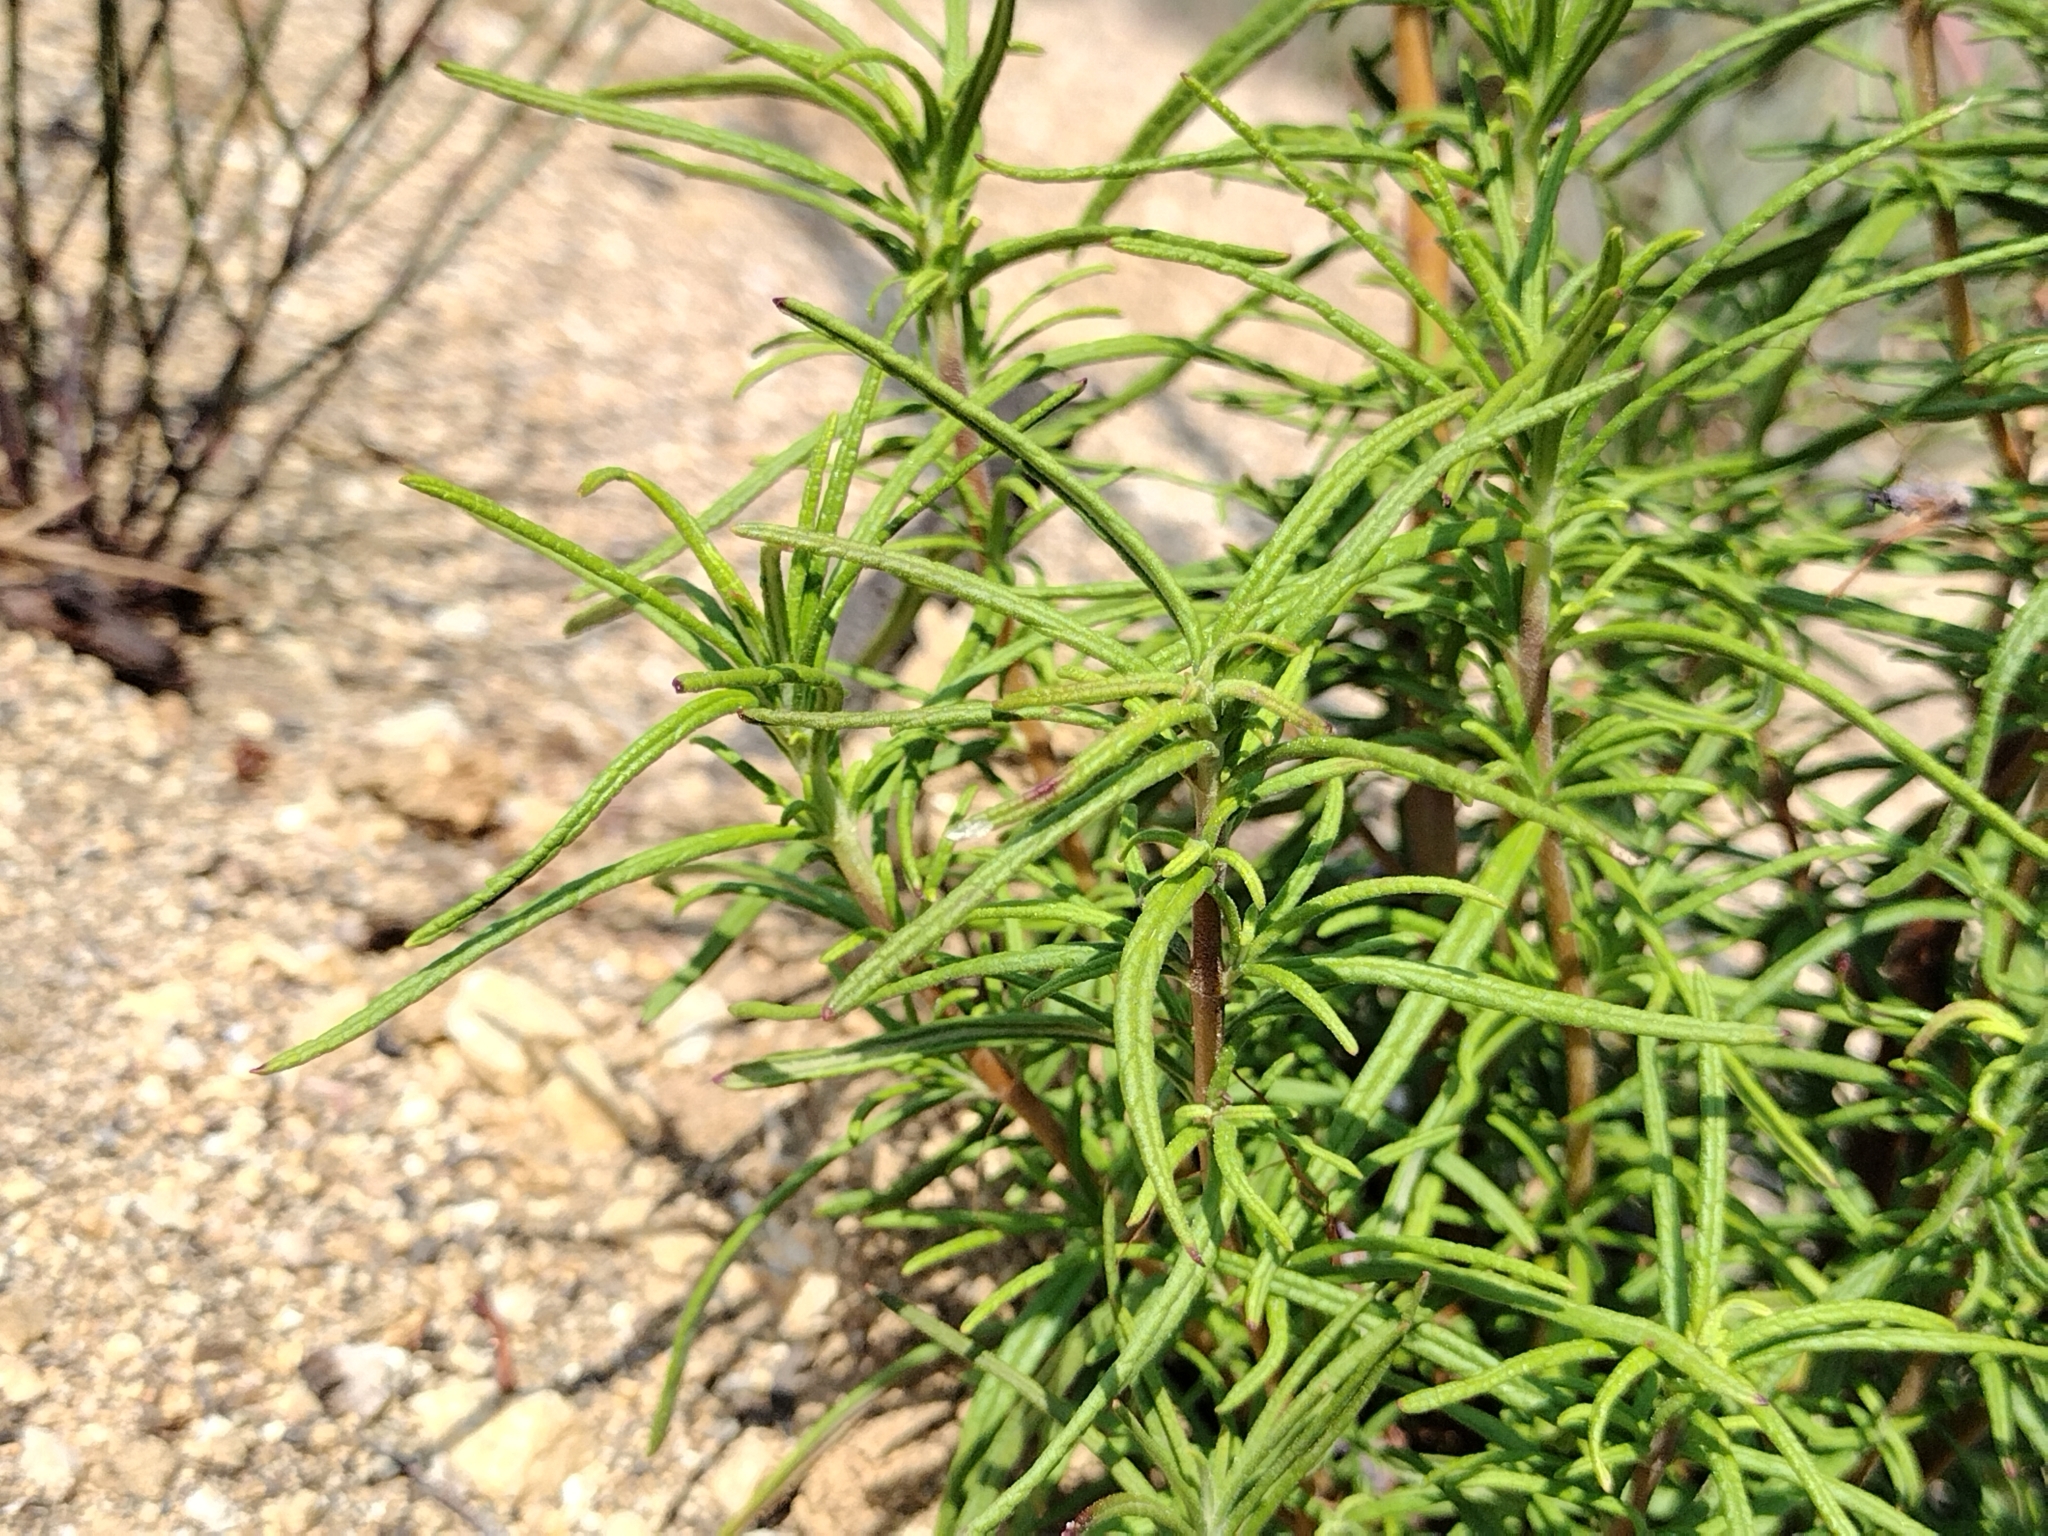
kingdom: Plantae
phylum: Tracheophyta
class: Magnoliopsida
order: Lamiales
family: Lamiaceae
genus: Trichostema
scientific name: Trichostema lanatum
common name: Woolly bluecurls
